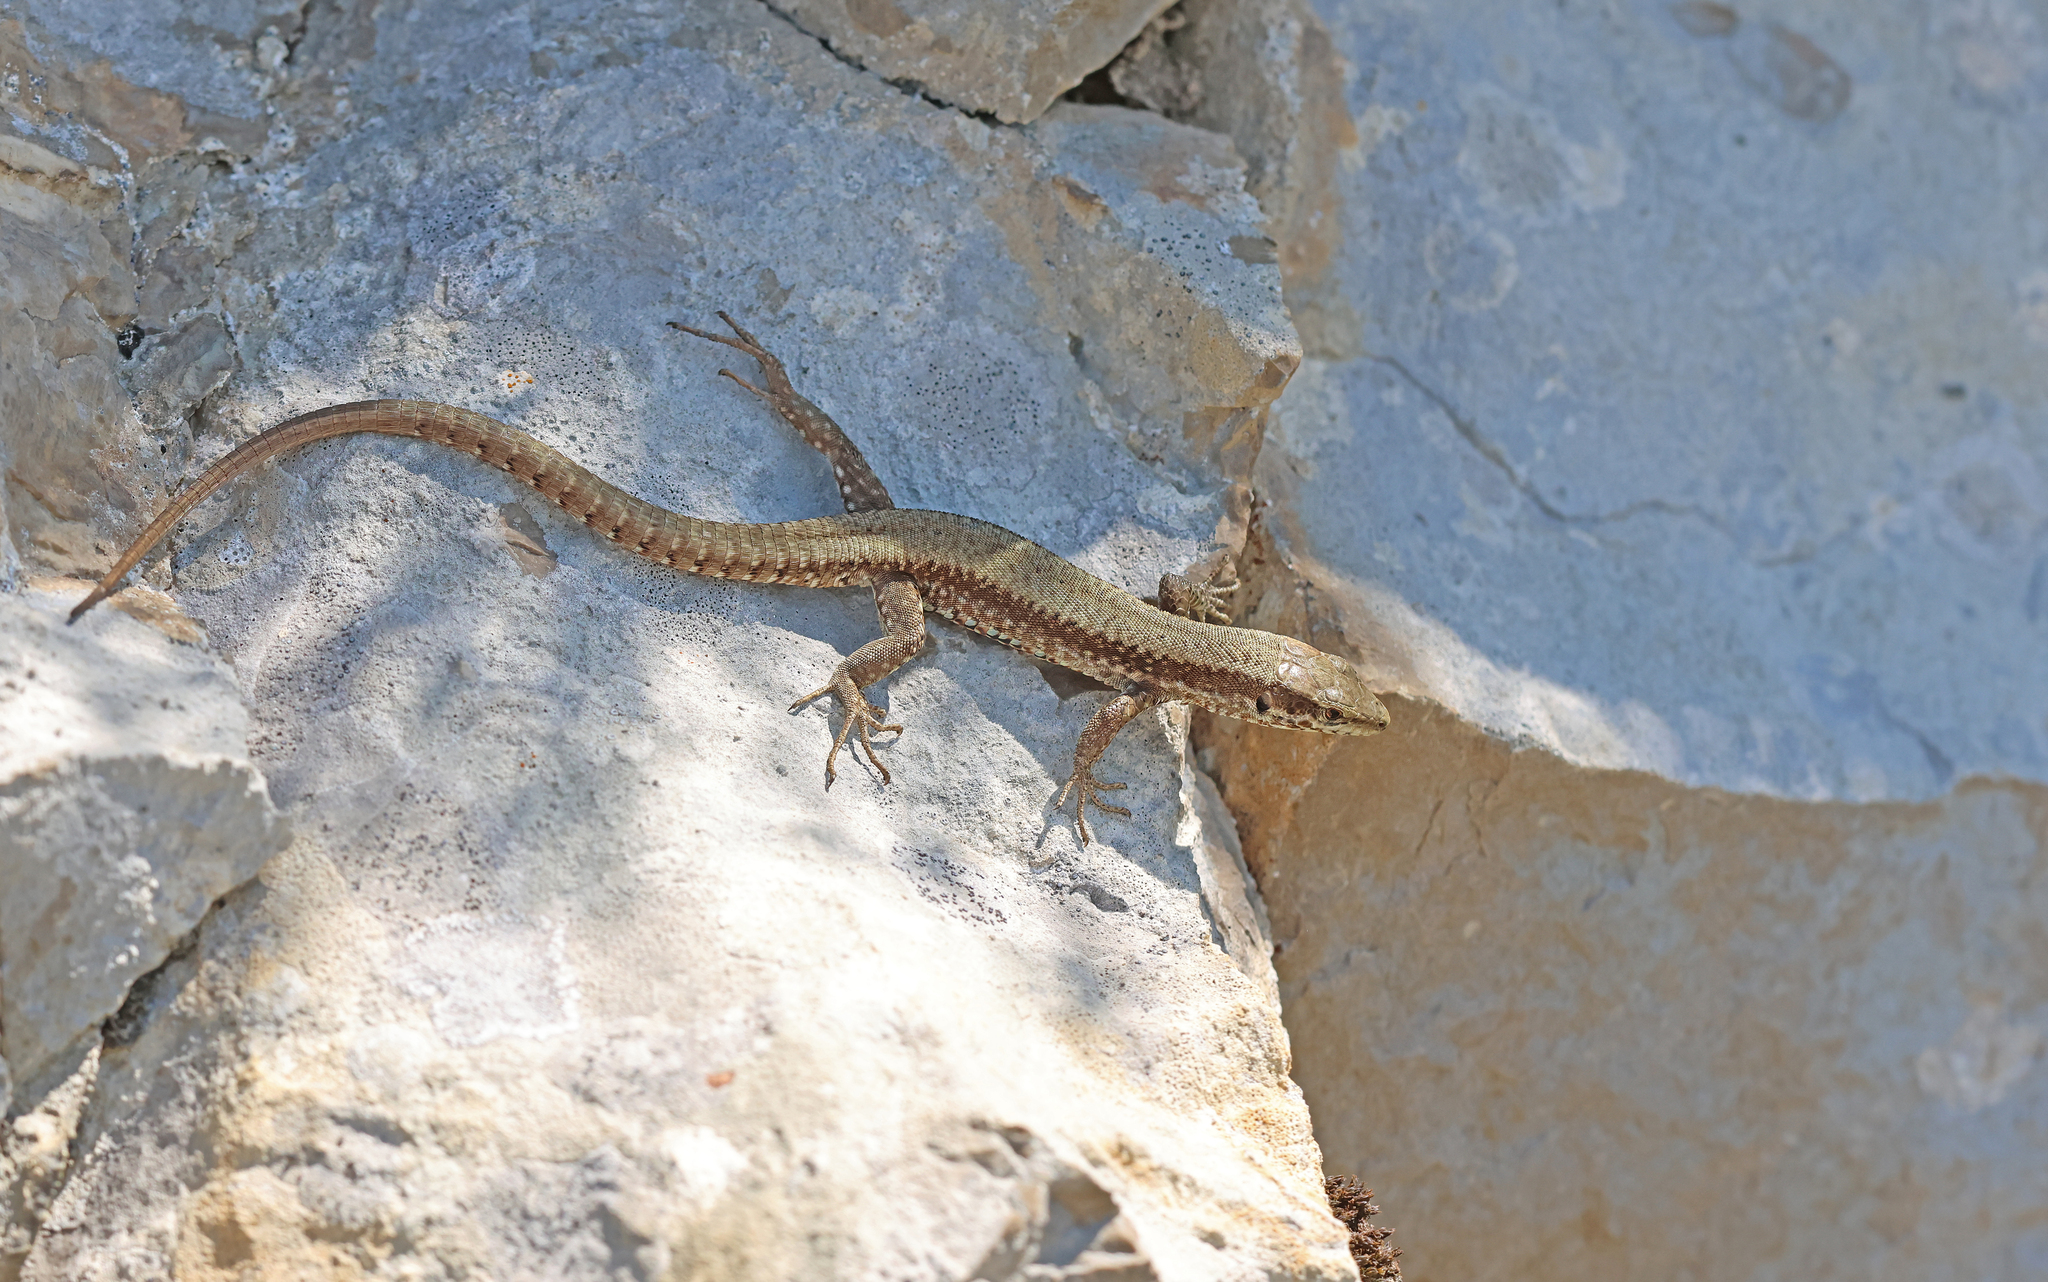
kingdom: Animalia
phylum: Chordata
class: Squamata
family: Lacertidae
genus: Podarcis
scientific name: Podarcis muralis
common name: Common wall lizard
